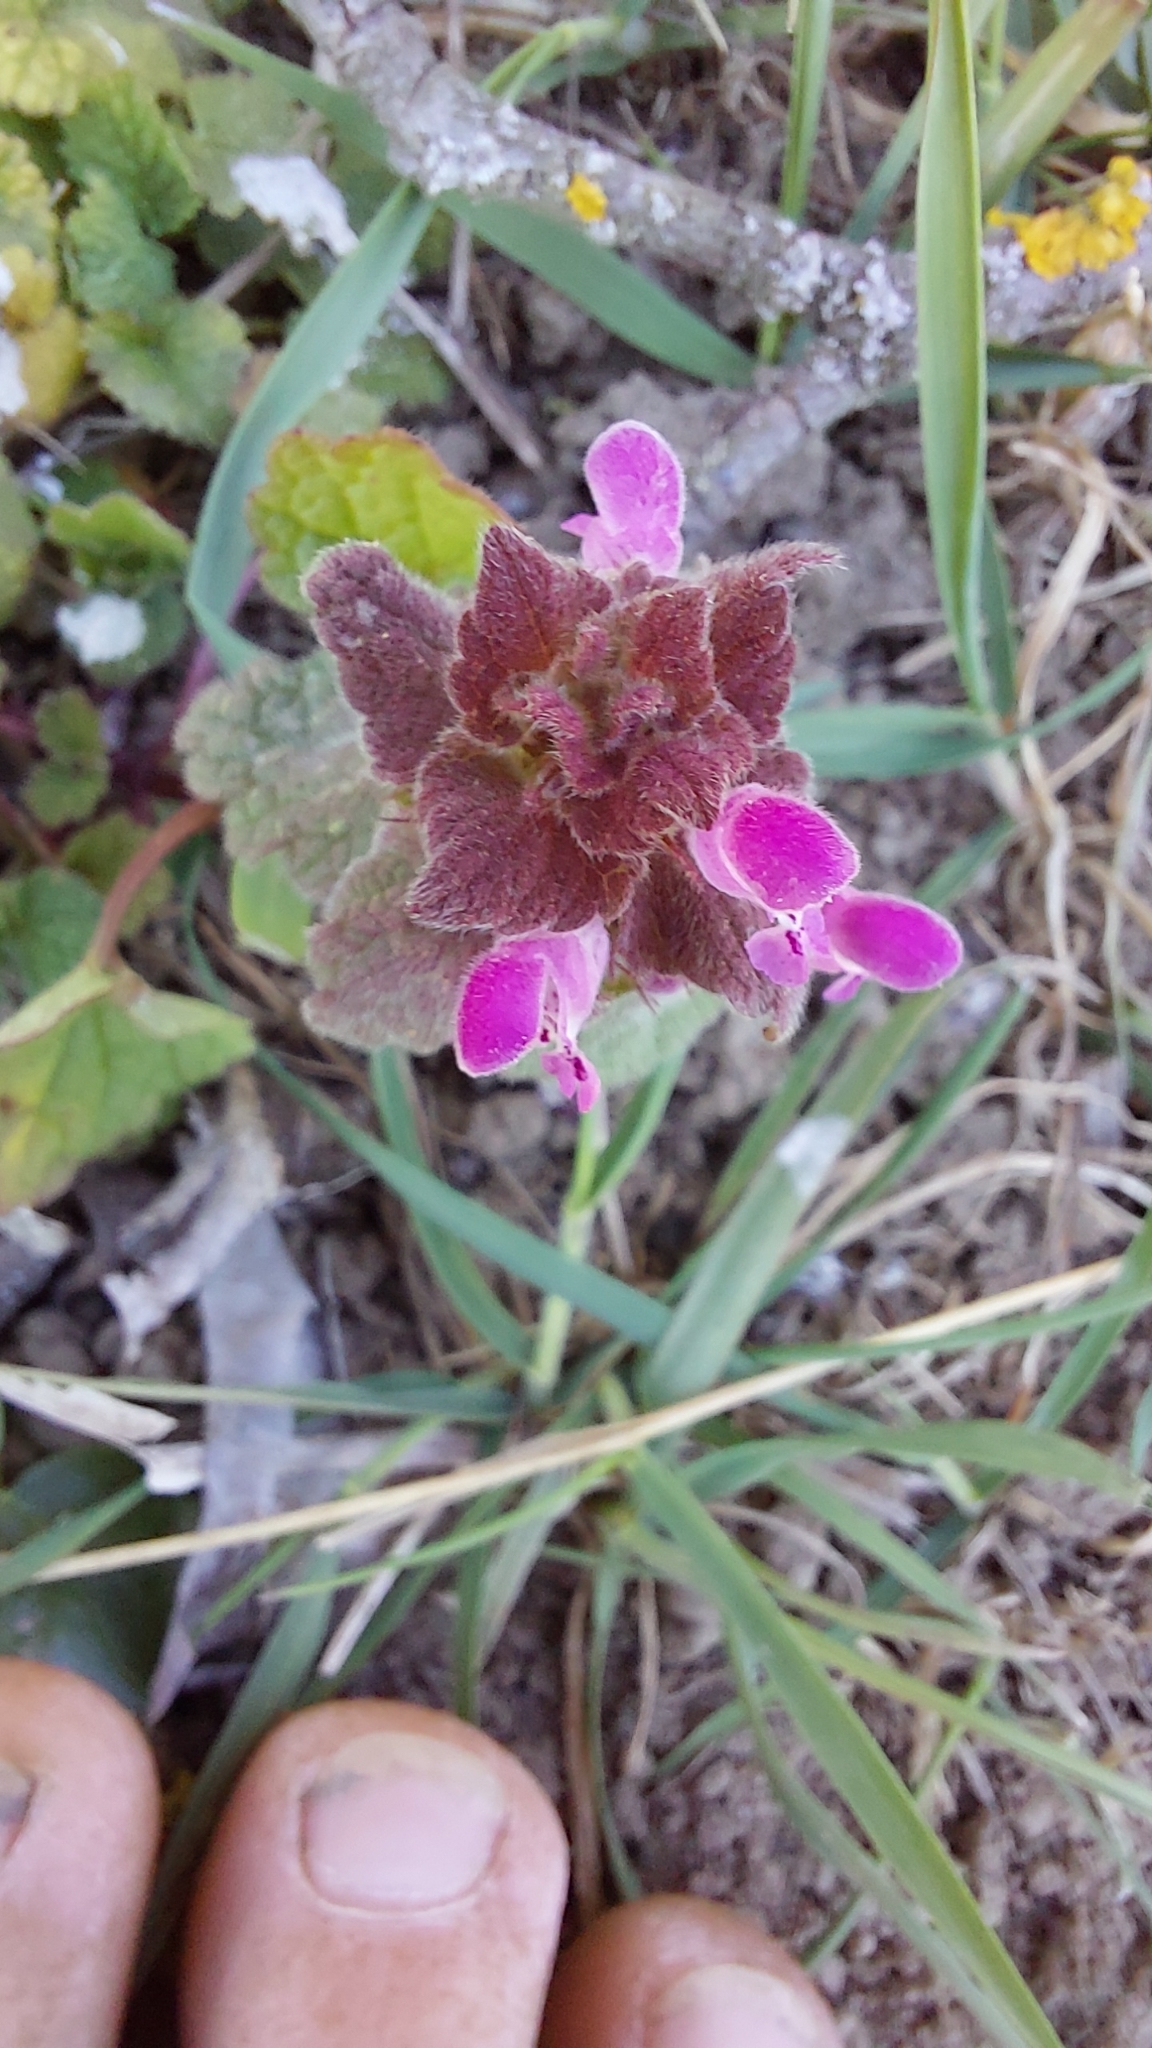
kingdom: Plantae
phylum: Tracheophyta
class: Magnoliopsida
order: Lamiales
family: Lamiaceae
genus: Lamium
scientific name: Lamium purpureum
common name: Red dead-nettle
